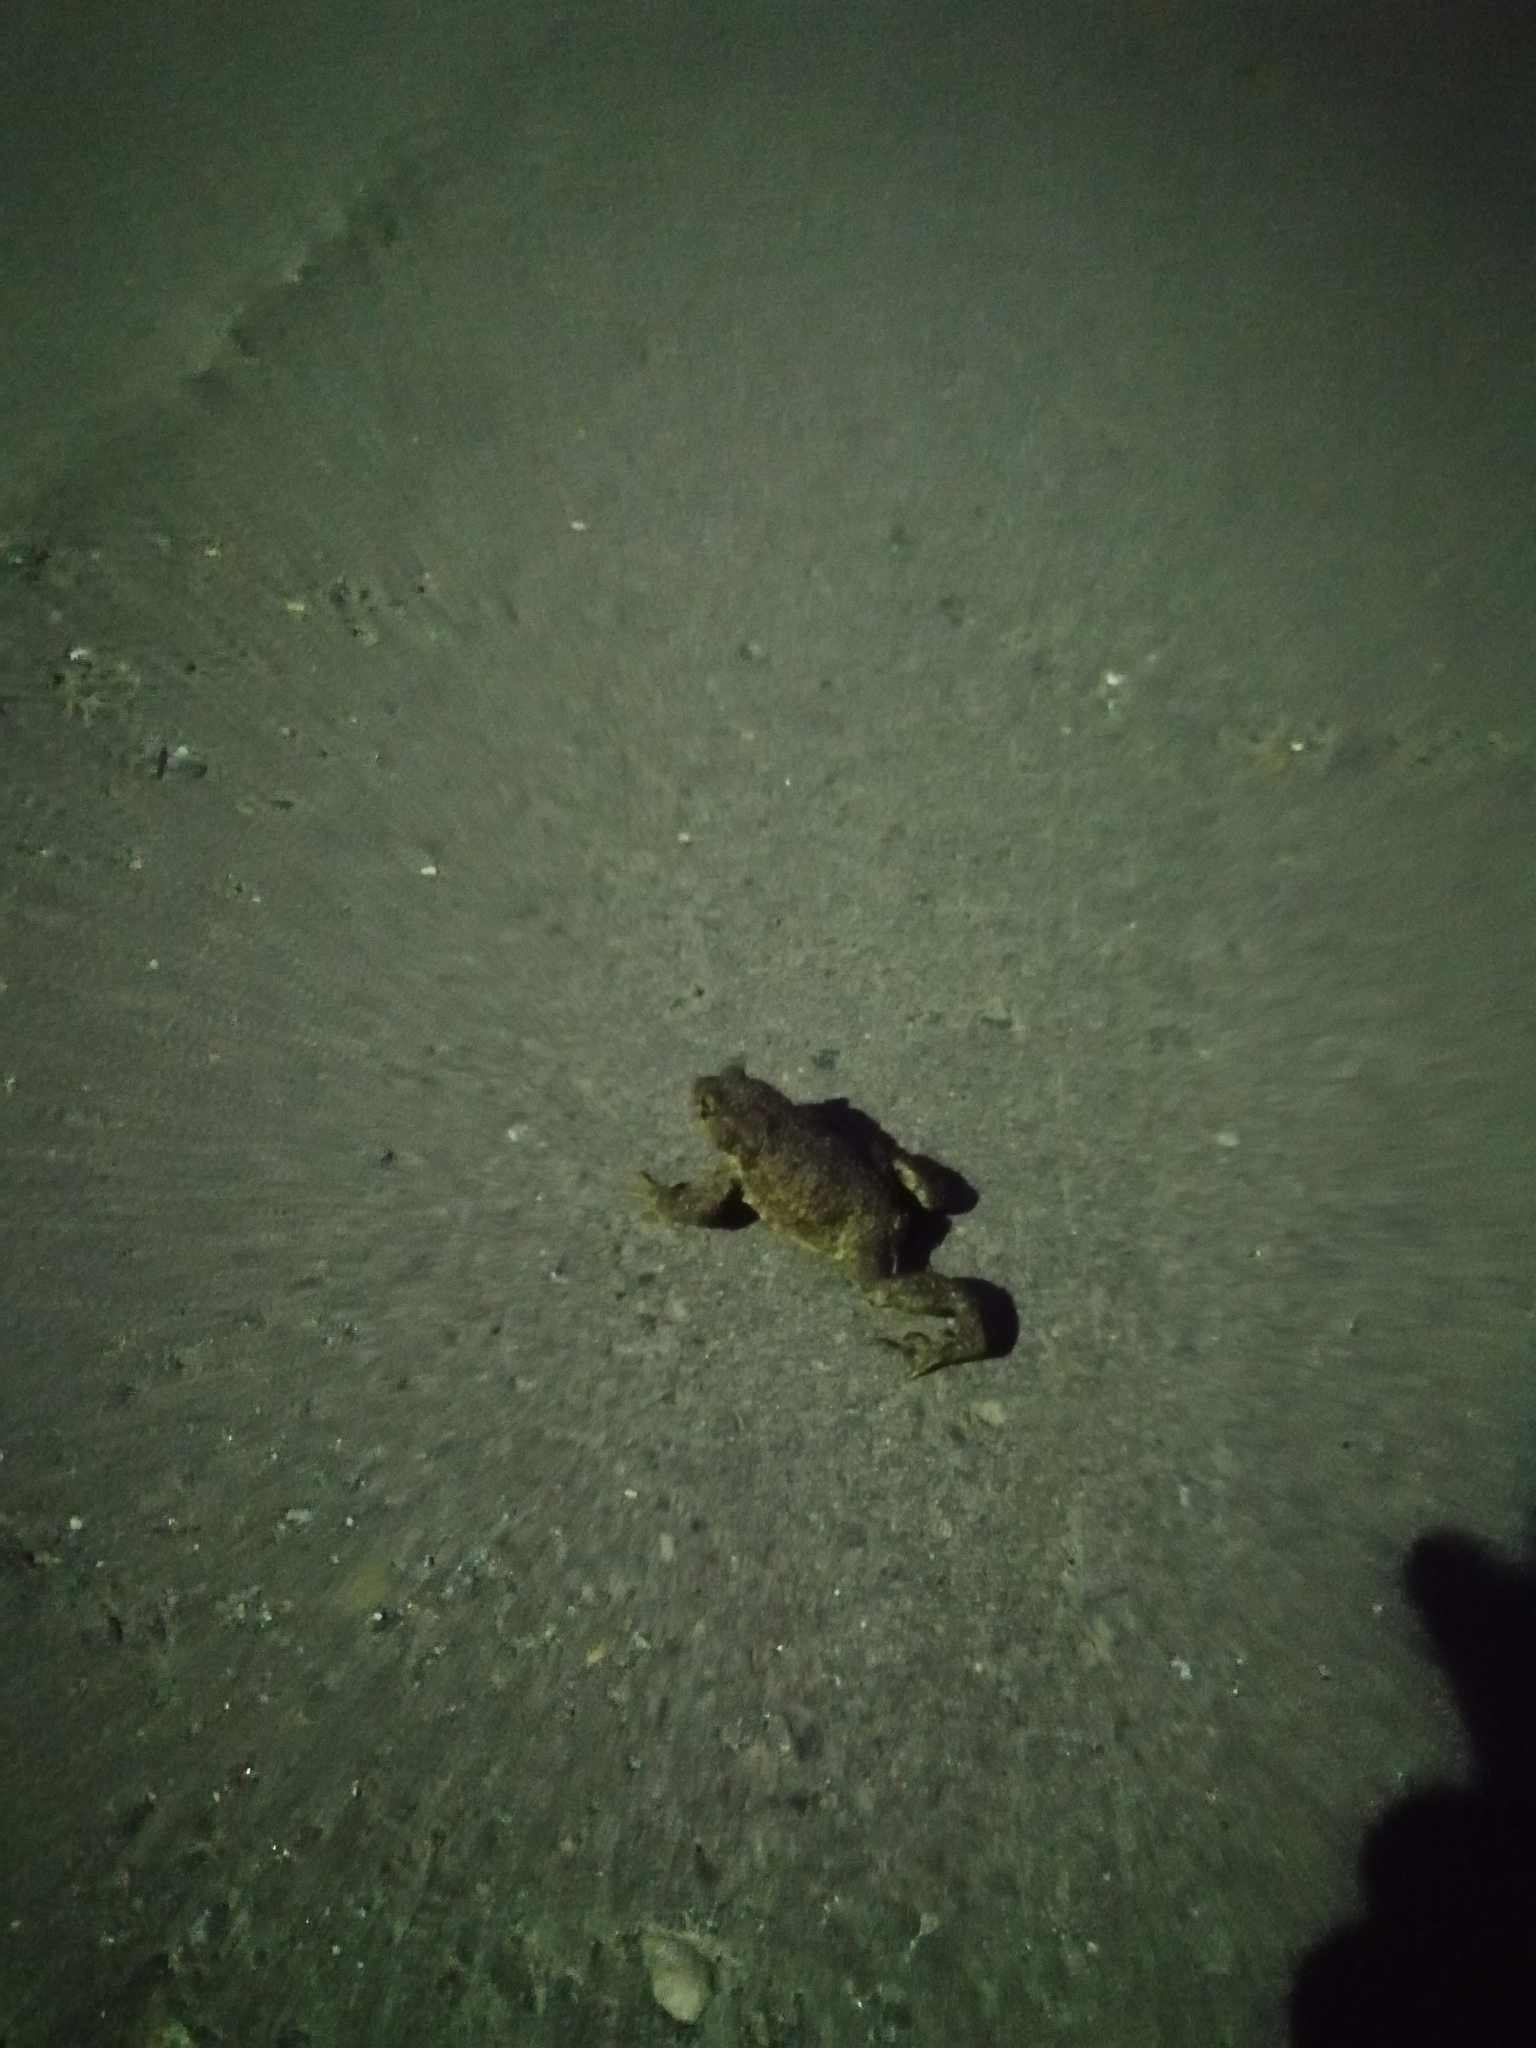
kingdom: Animalia
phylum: Chordata
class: Amphibia
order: Anura
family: Bufonidae
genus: Bufo
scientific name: Bufo bufo
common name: Common toad
